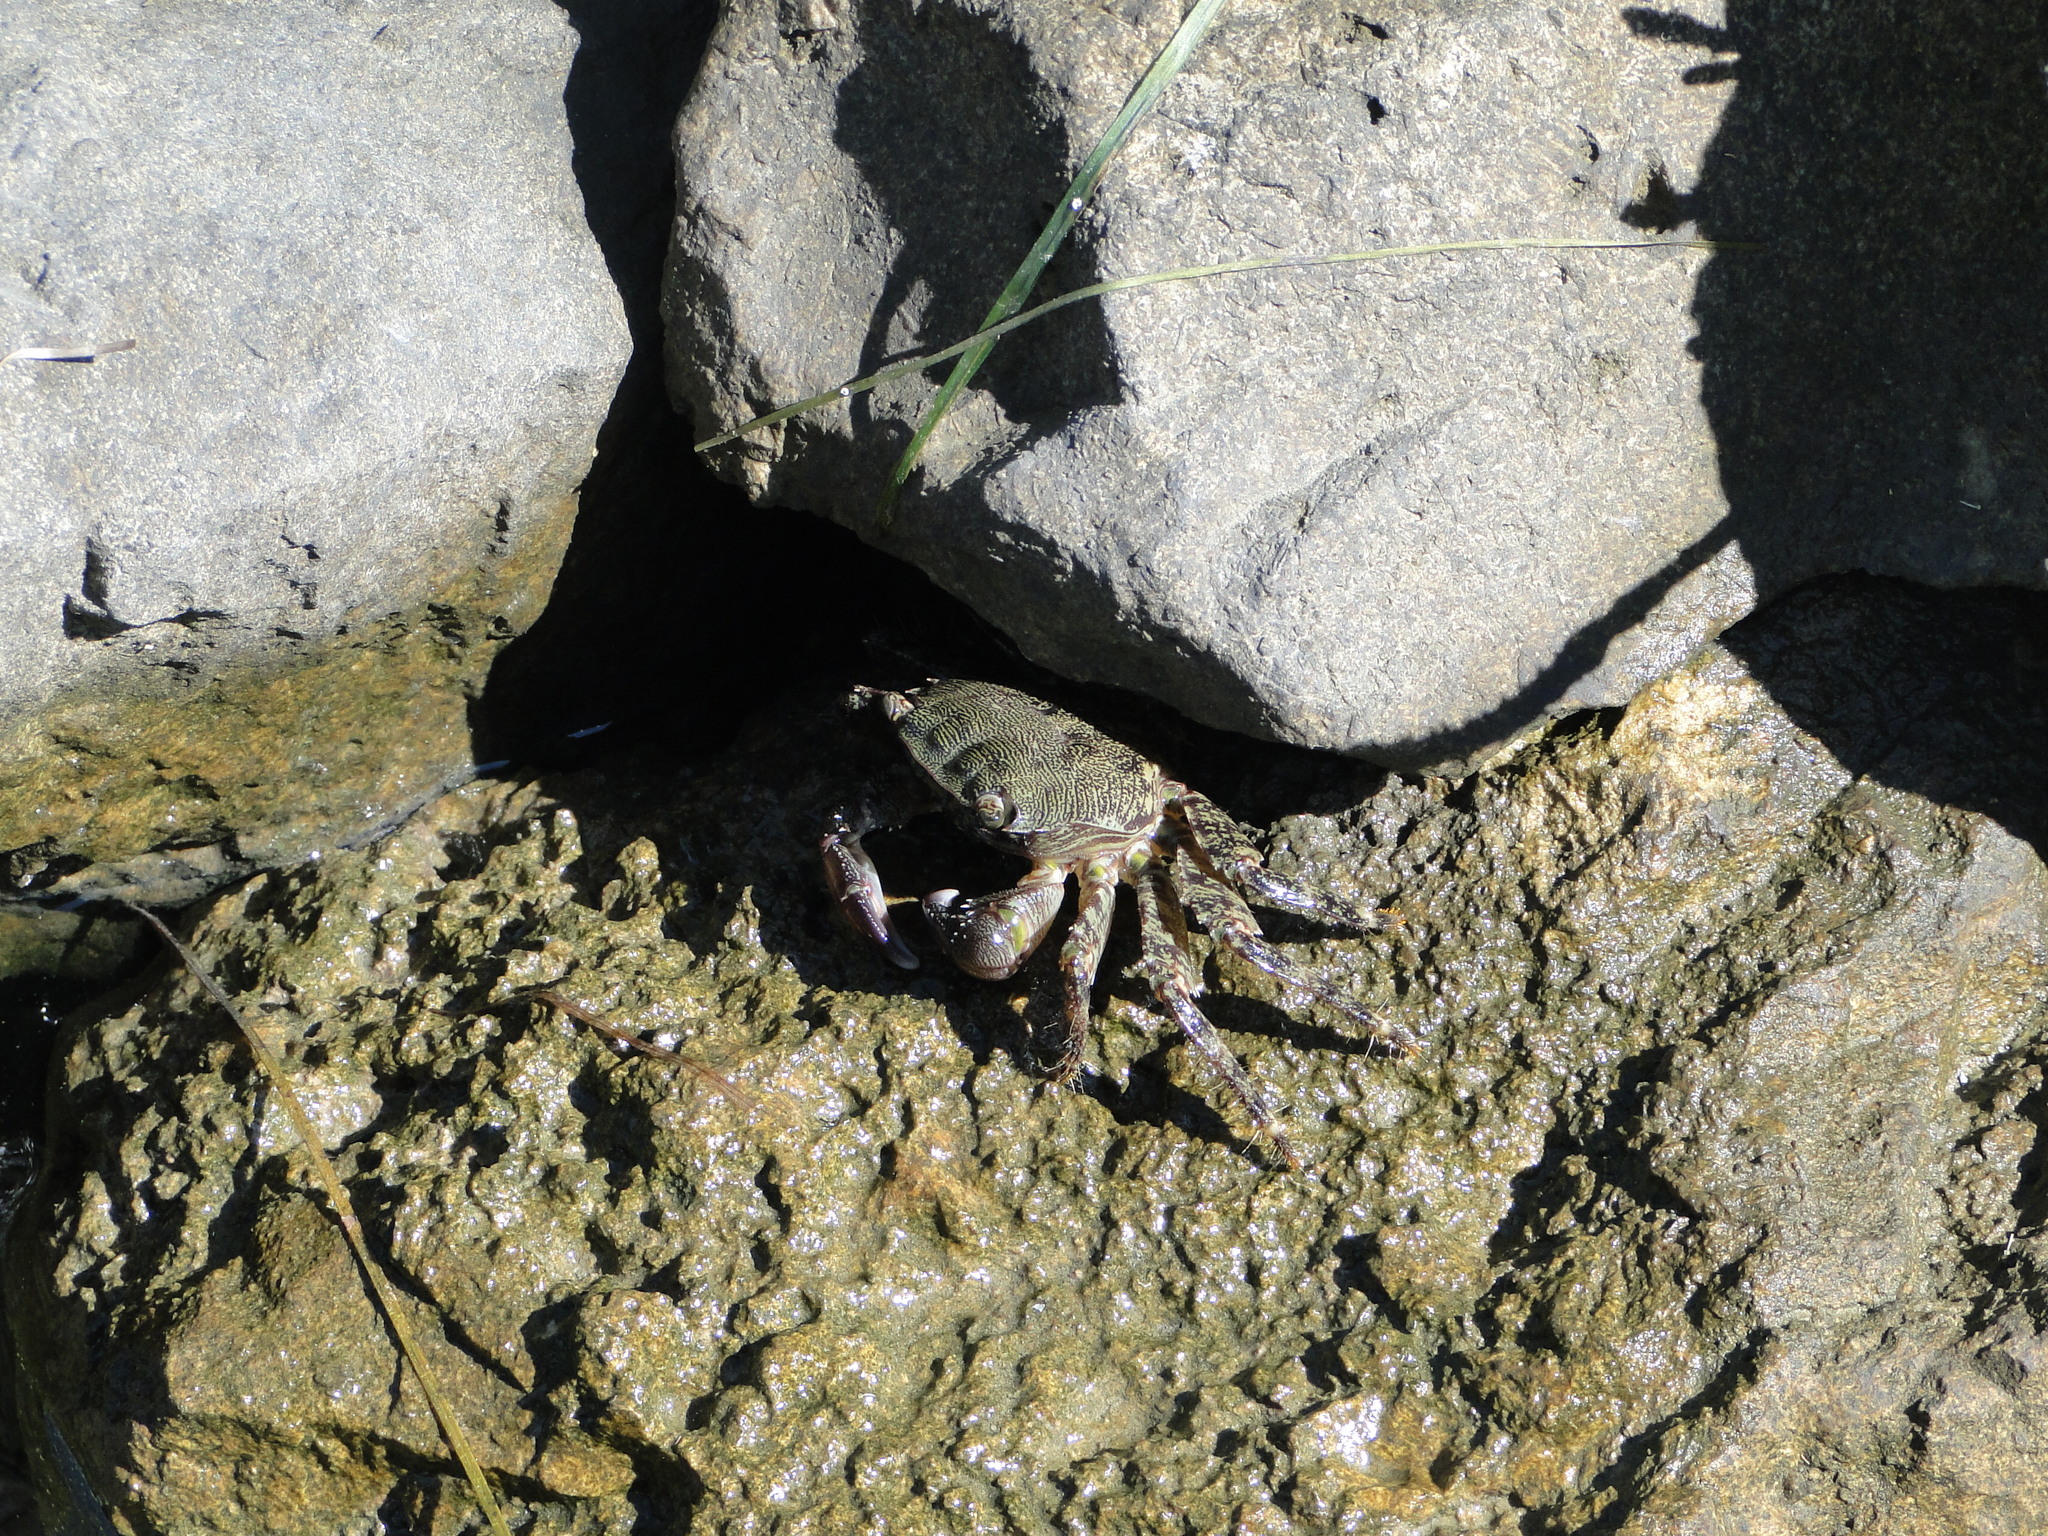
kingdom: Animalia
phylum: Arthropoda
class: Malacostraca
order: Decapoda
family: Grapsidae
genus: Pachygrapsus
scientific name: Pachygrapsus marmoratus
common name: Marbled rock crab
